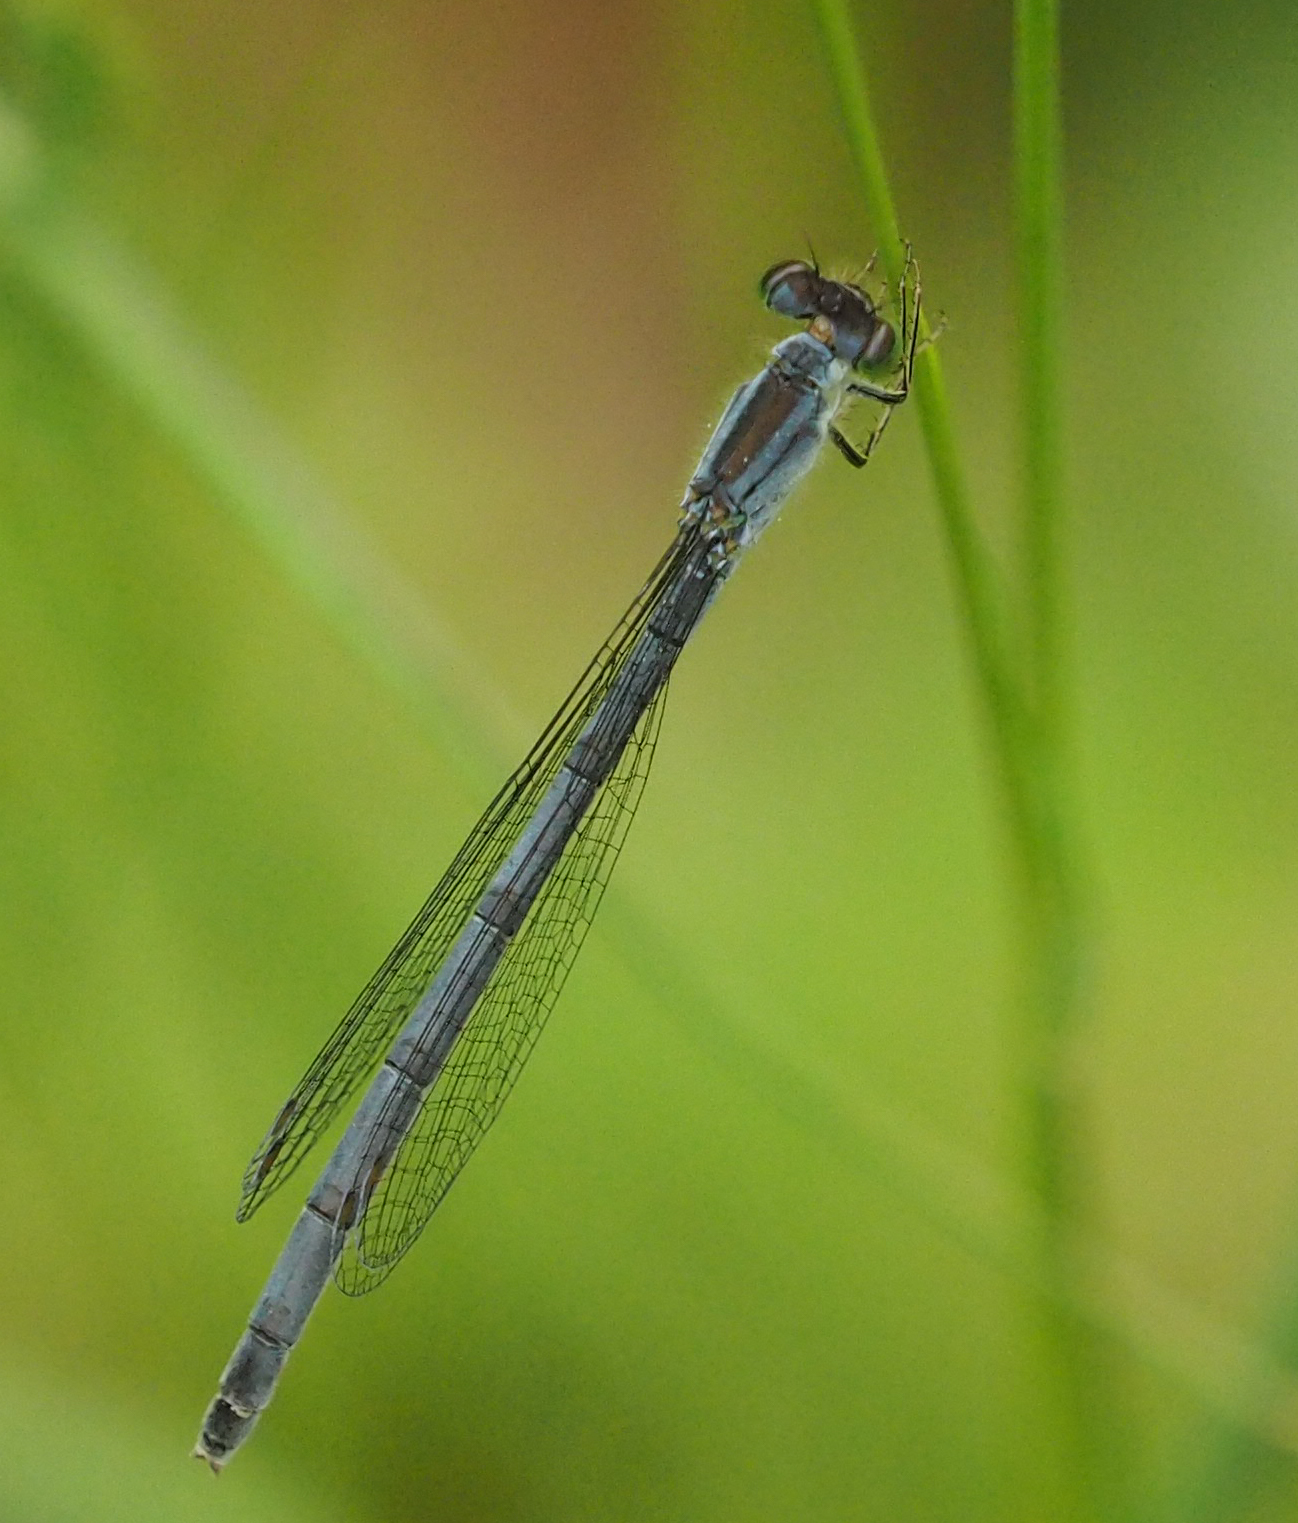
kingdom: Animalia
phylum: Arthropoda
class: Insecta
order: Odonata
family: Coenagrionidae
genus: Ischnura
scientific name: Ischnura verticalis
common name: Eastern forktail
